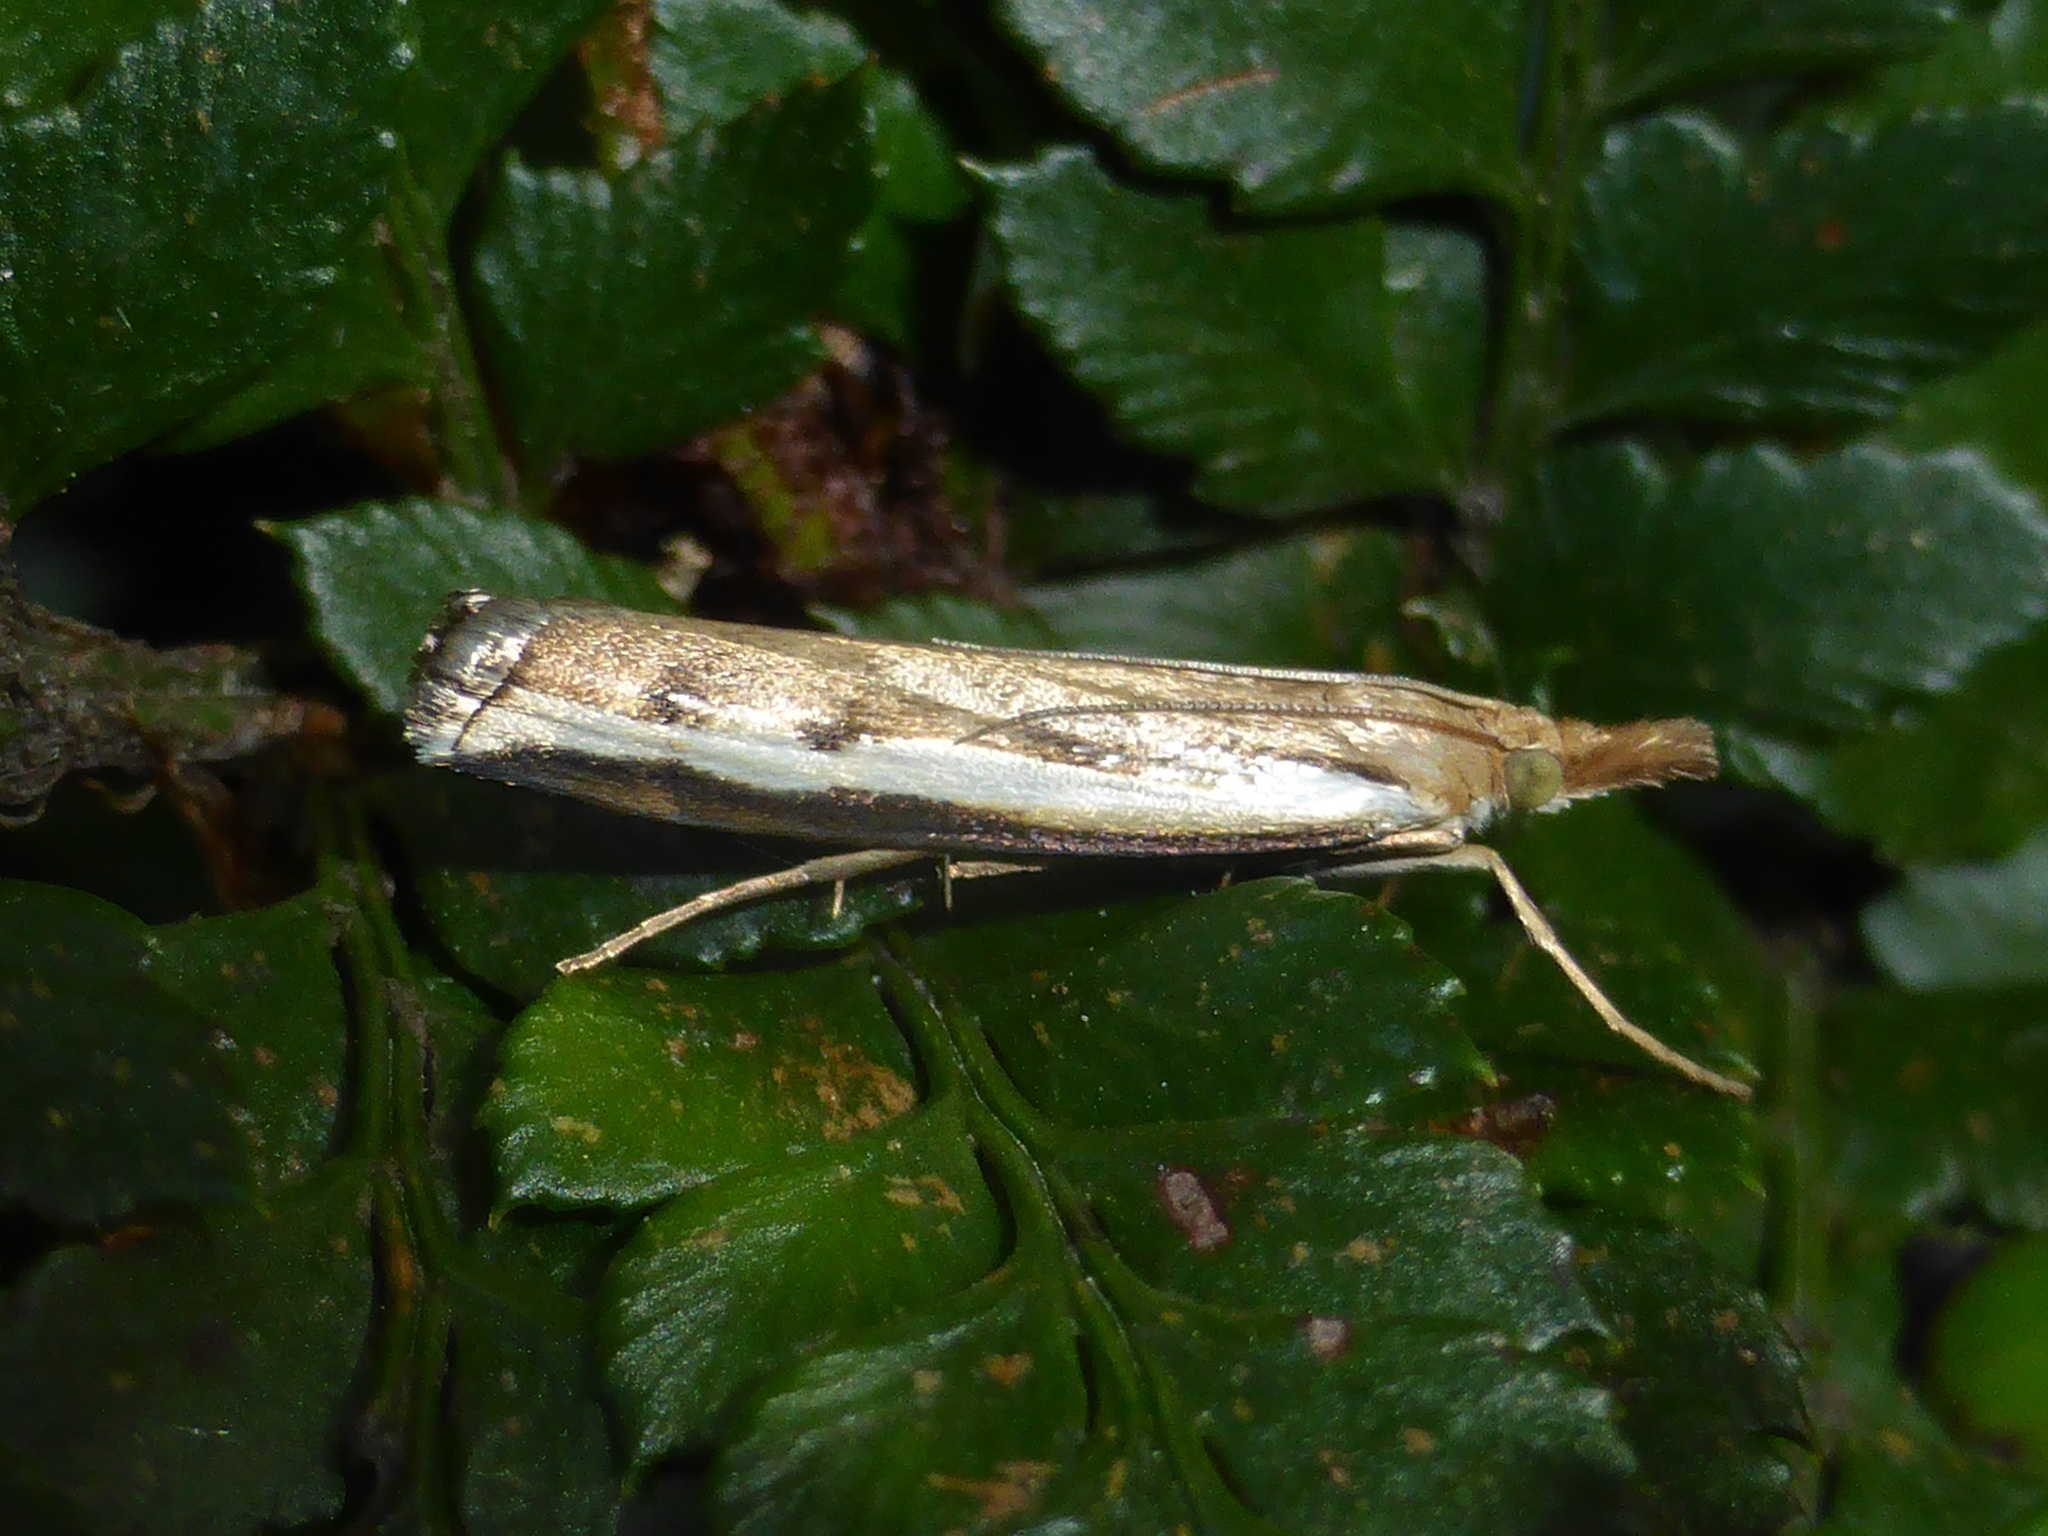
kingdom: Animalia
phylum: Arthropoda
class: Insecta
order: Lepidoptera
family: Crambidae
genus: Orocrambus
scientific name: Orocrambus flexuosellus
